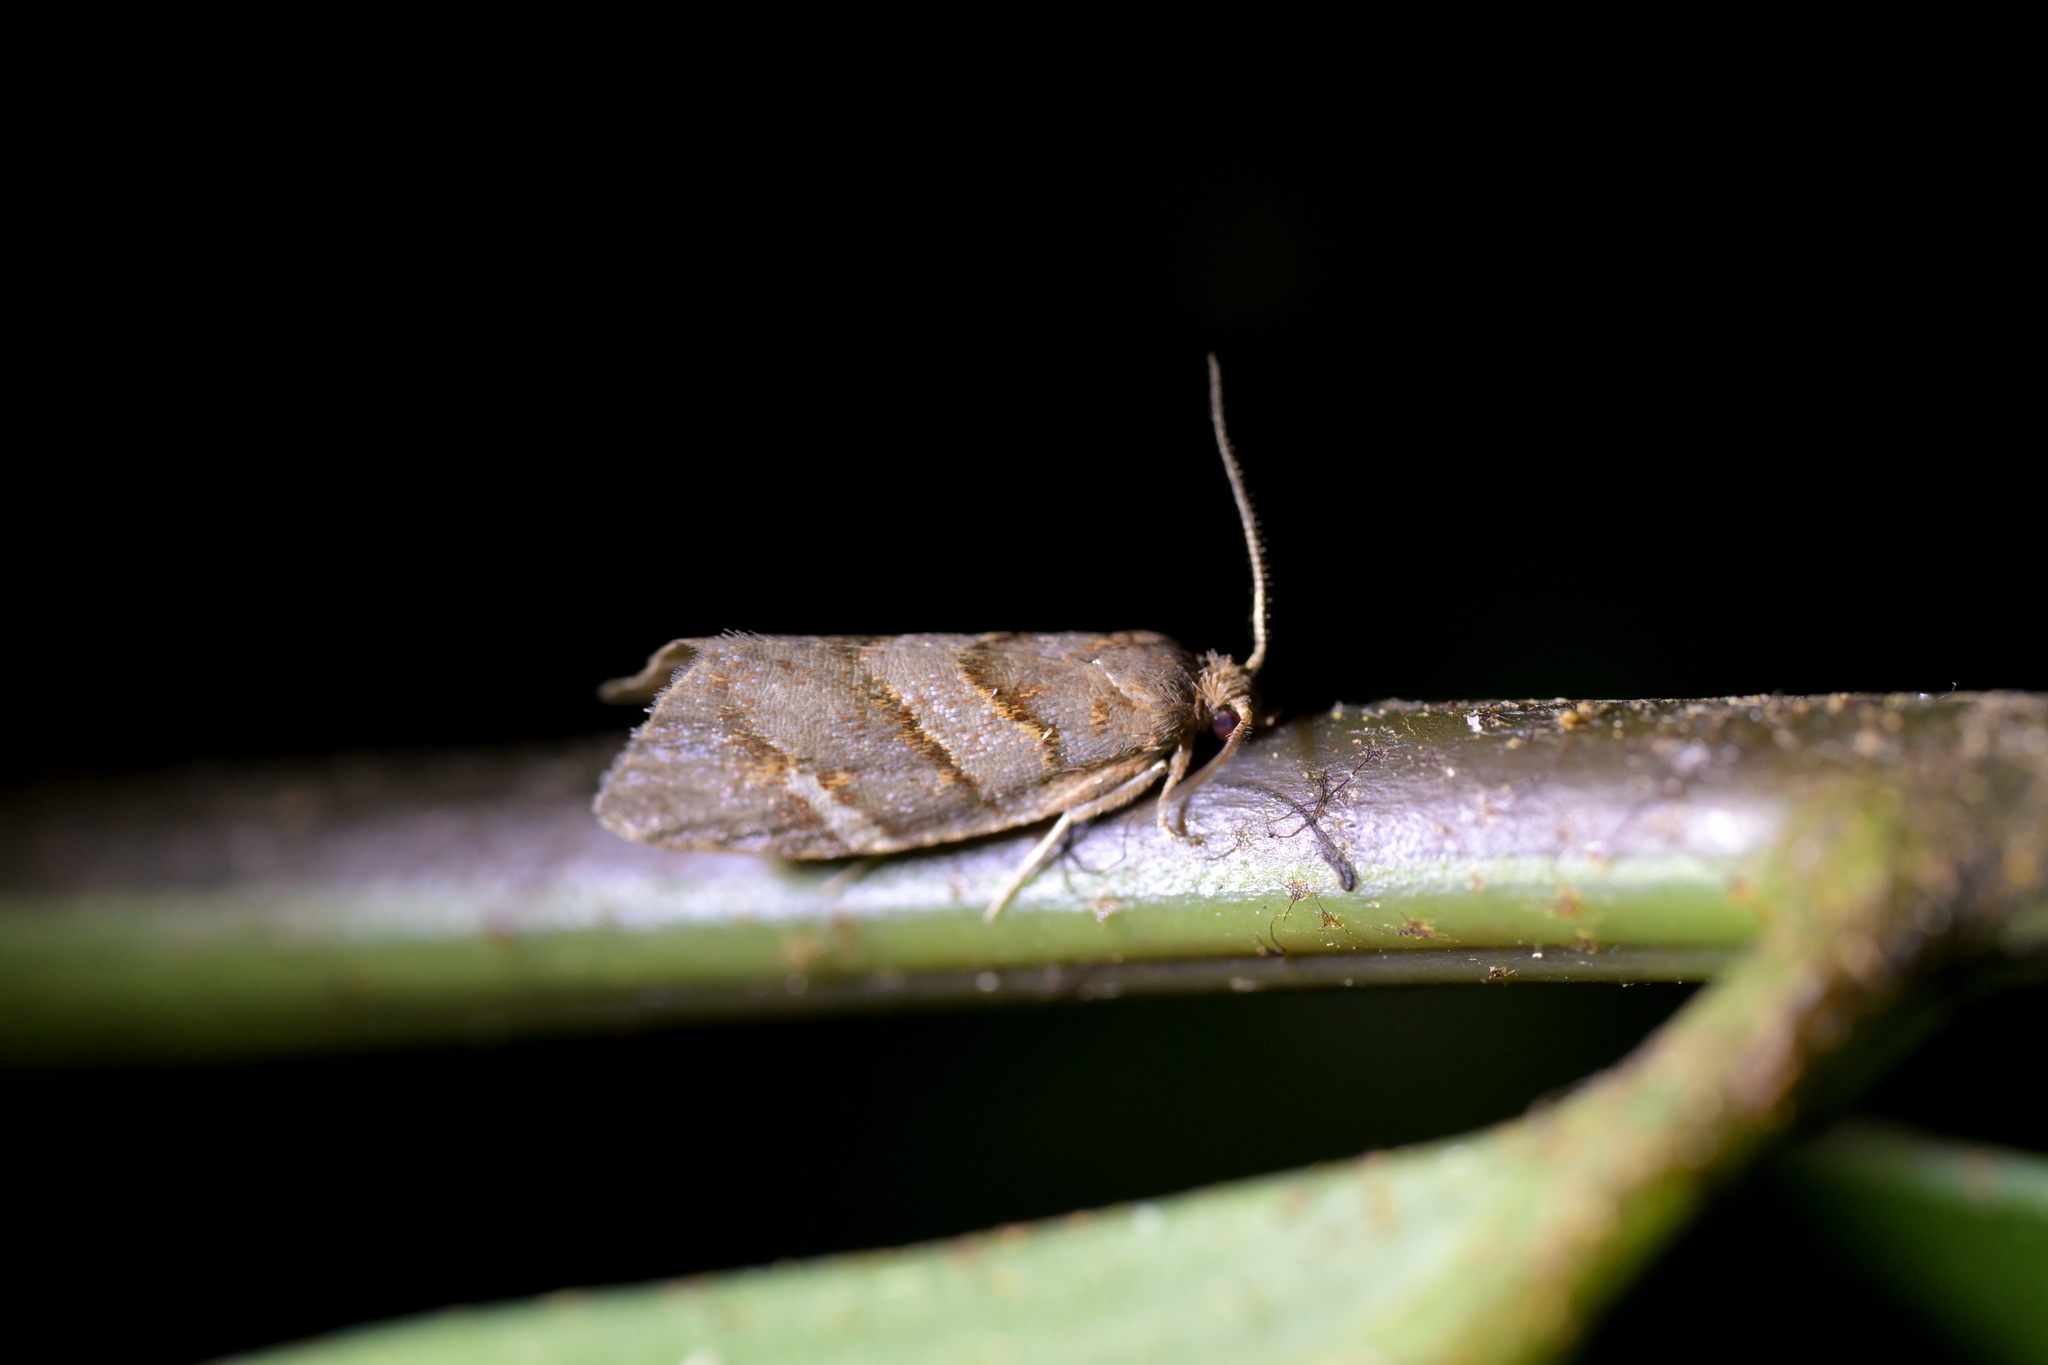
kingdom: Animalia
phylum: Arthropoda
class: Insecta
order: Lepidoptera
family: Tortricidae
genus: Ecclitica
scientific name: Ecclitica torogramma
